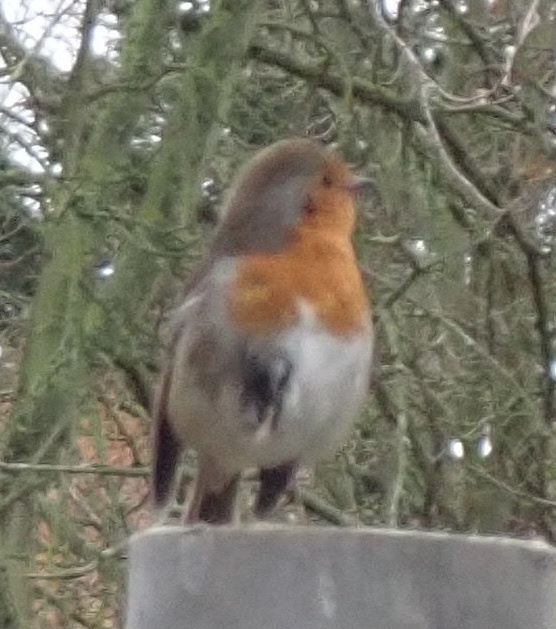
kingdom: Animalia
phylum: Chordata
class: Aves
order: Passeriformes
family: Muscicapidae
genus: Erithacus
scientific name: Erithacus rubecula
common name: European robin
